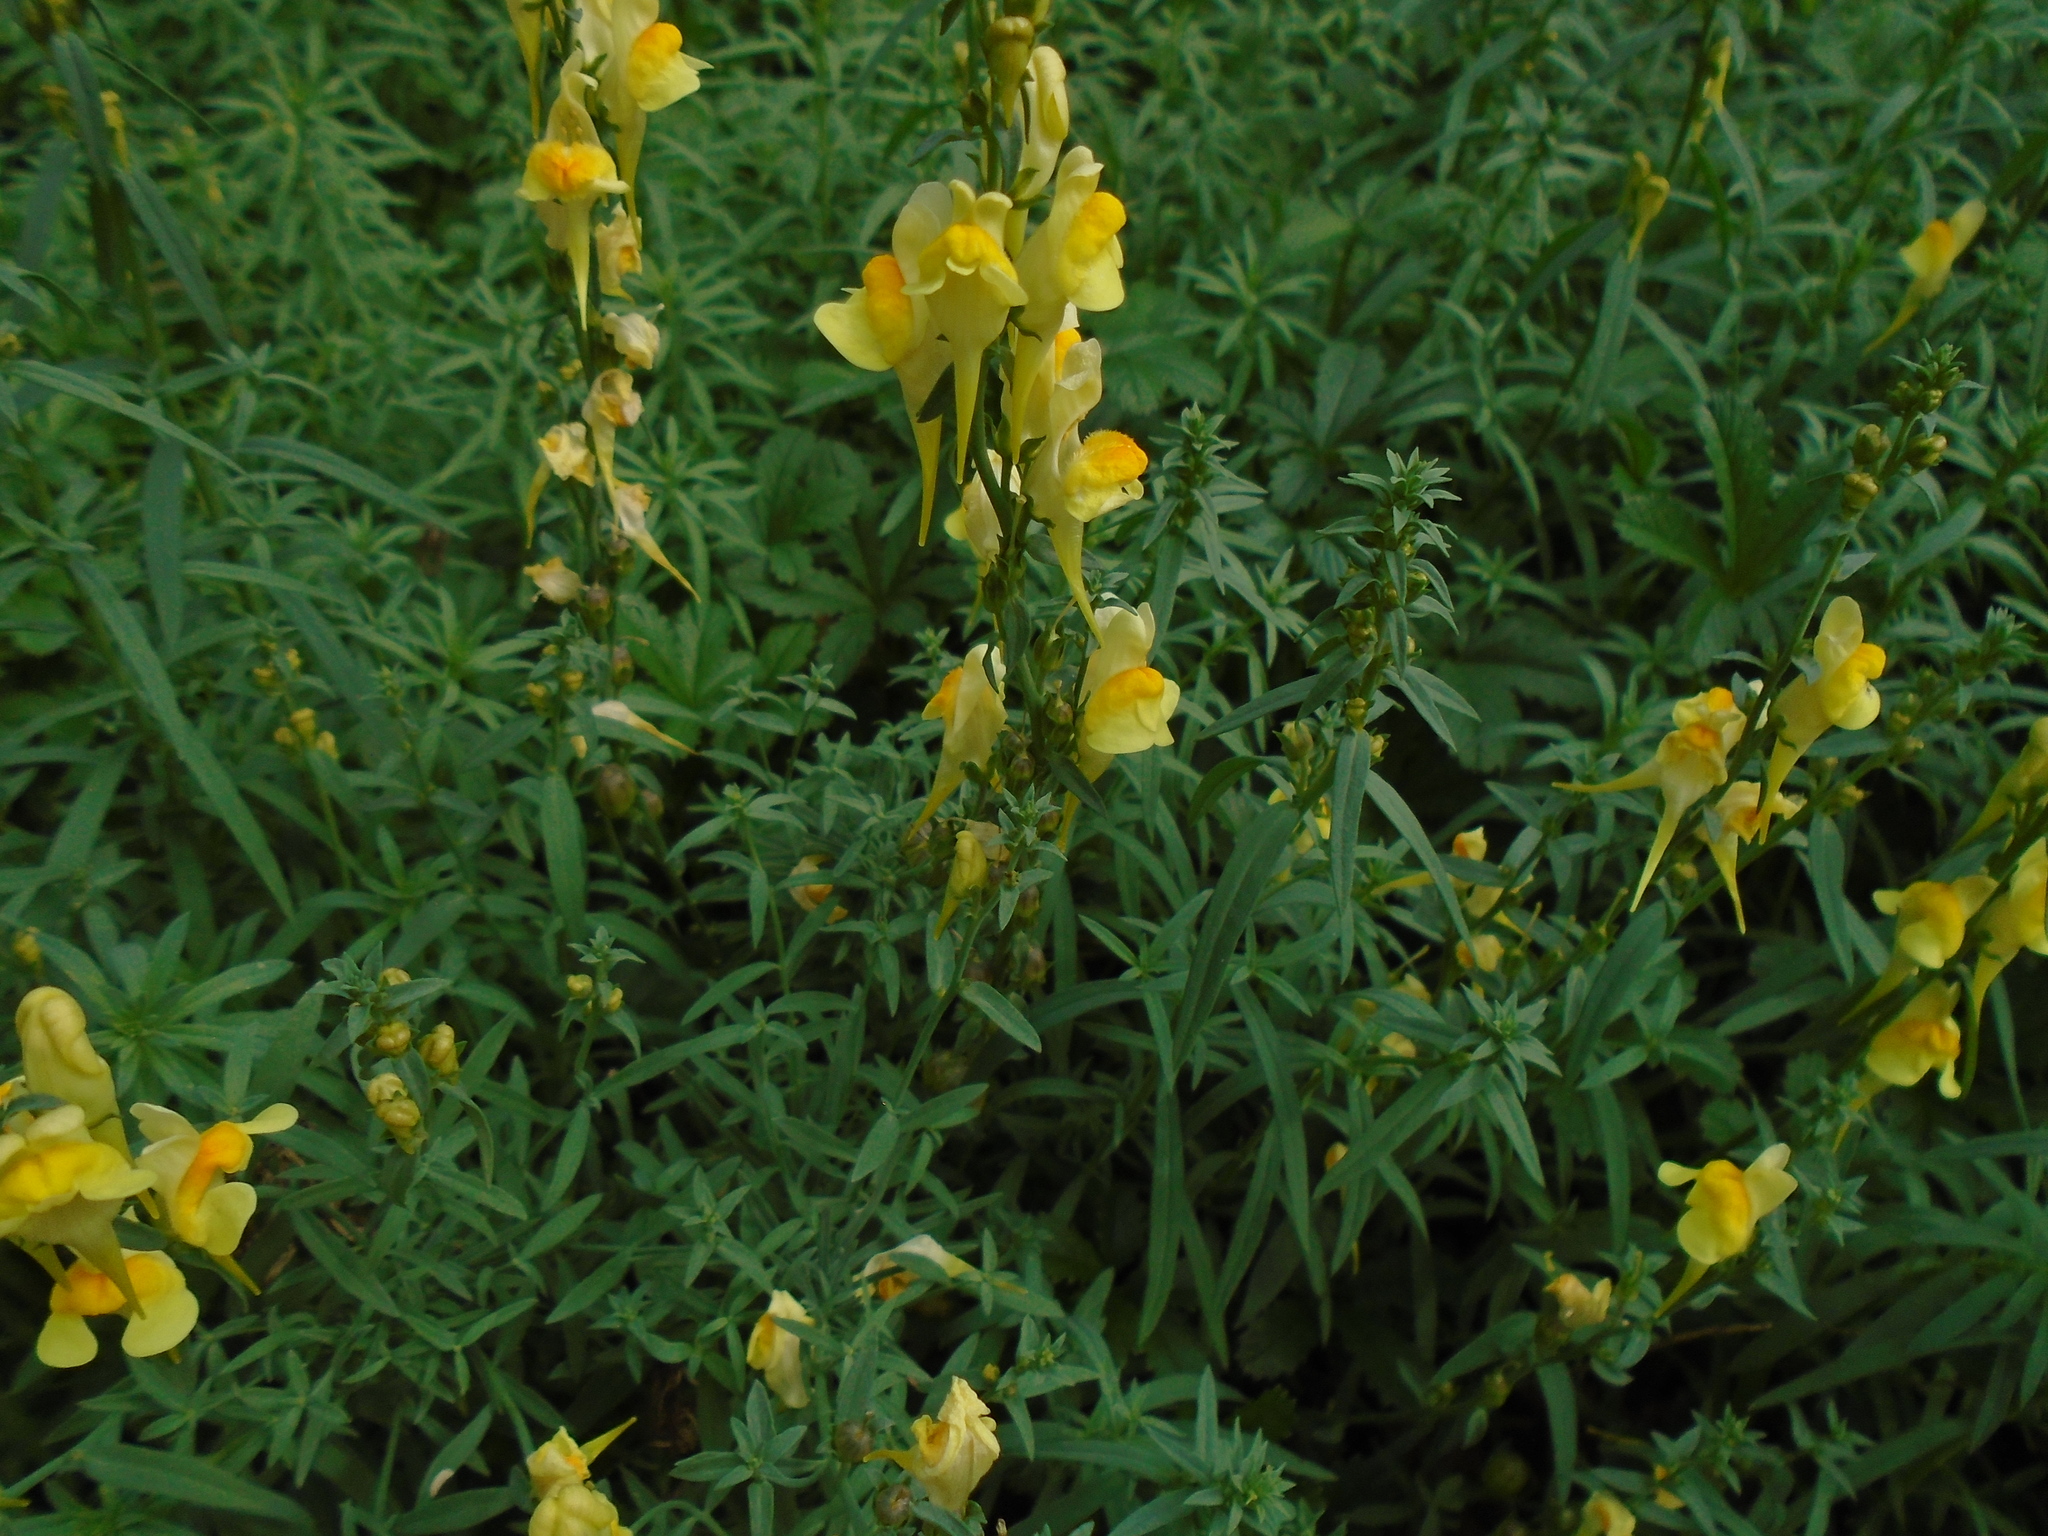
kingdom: Plantae
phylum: Tracheophyta
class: Magnoliopsida
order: Lamiales
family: Plantaginaceae
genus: Linaria
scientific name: Linaria vulgaris
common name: Butter and eggs
